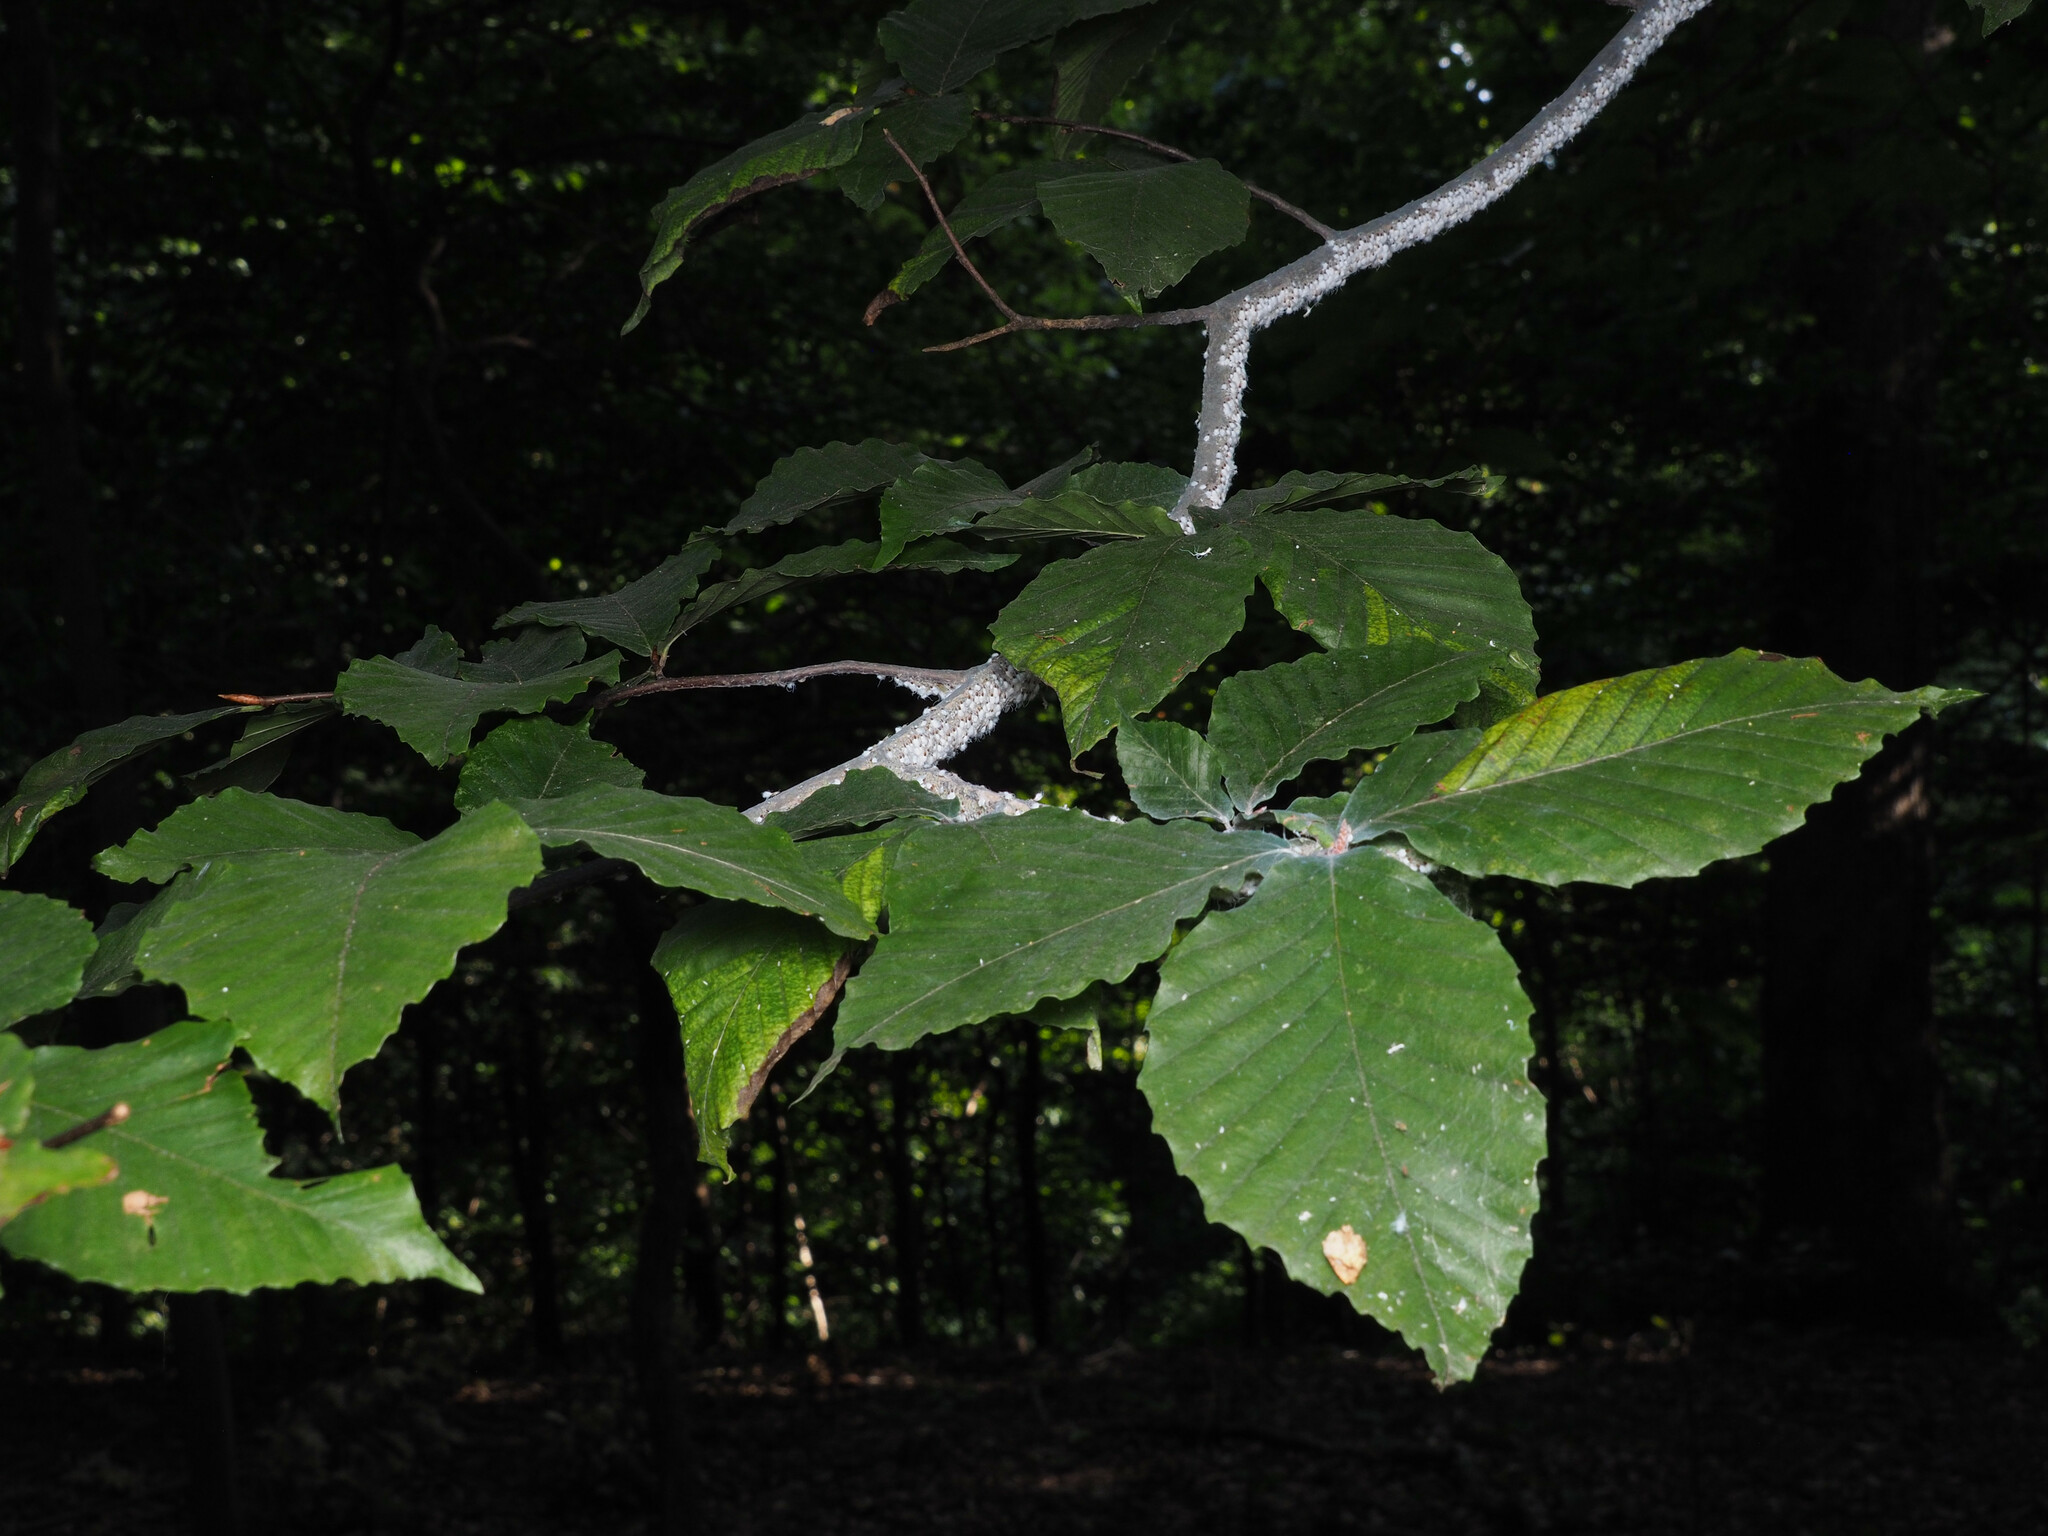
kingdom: Animalia
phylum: Arthropoda
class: Insecta
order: Hemiptera
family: Aphididae
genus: Grylloprociphilus
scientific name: Grylloprociphilus imbricator
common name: Beech blight aphid
